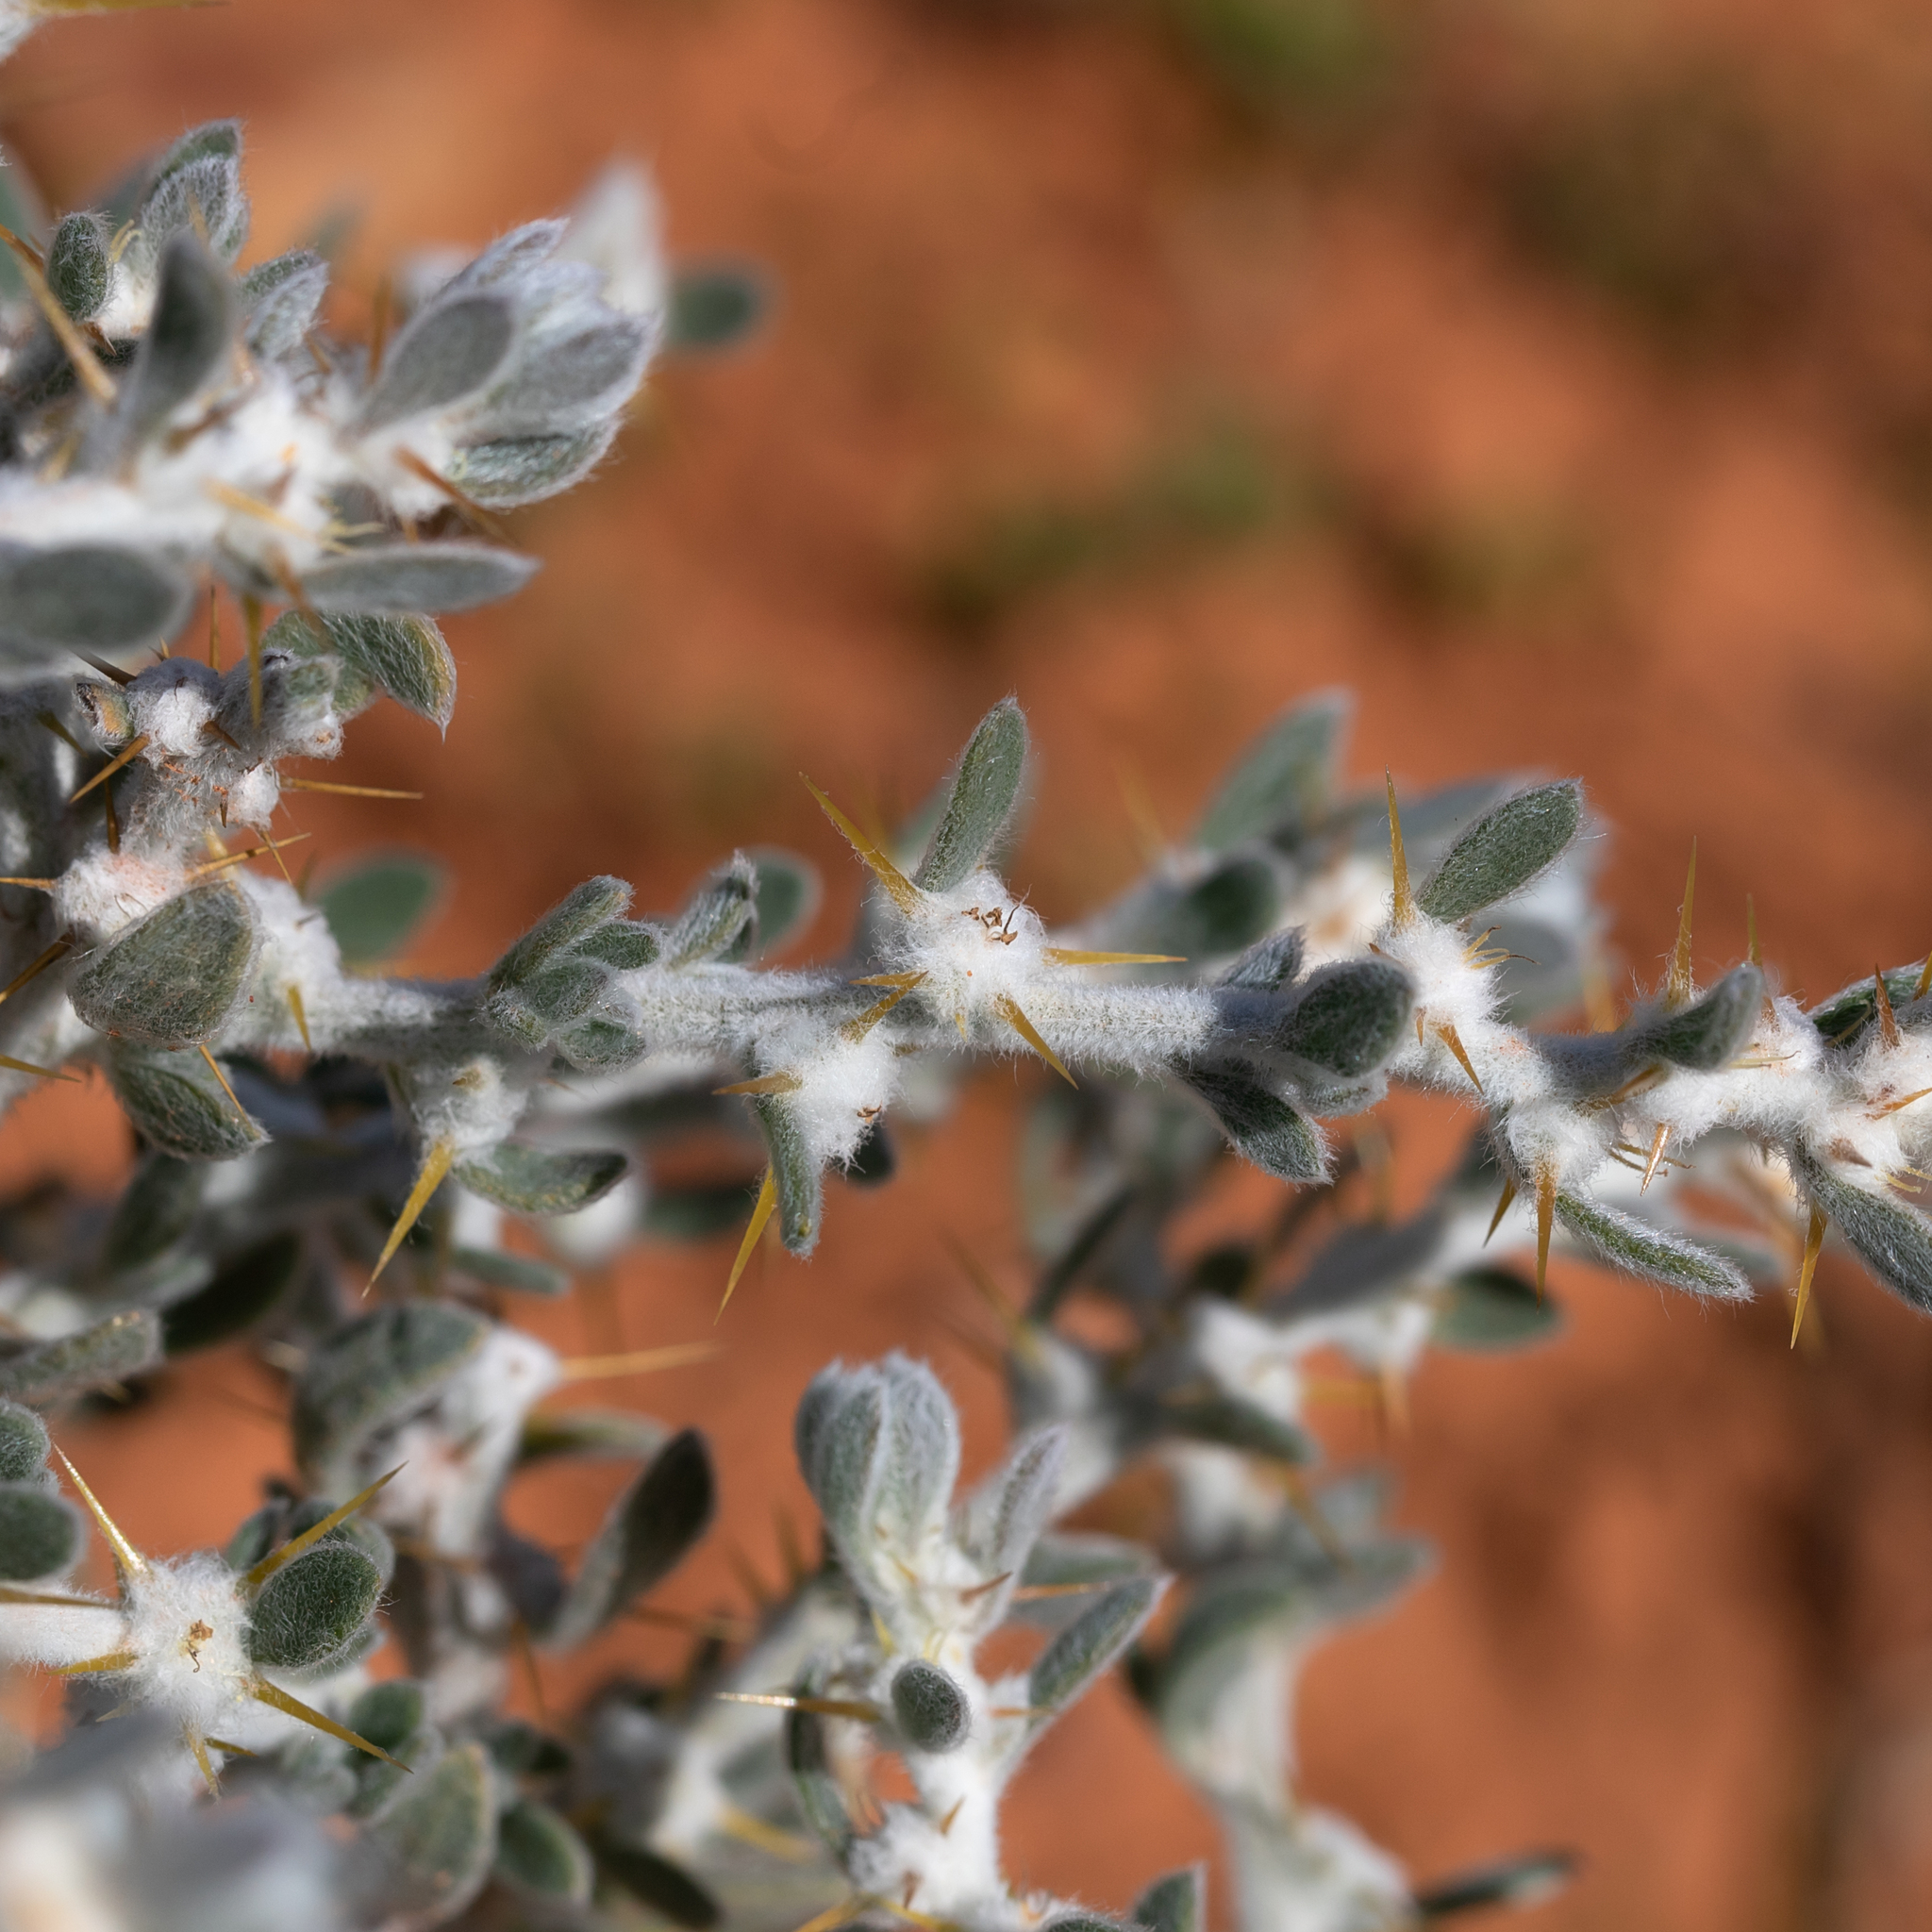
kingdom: Plantae
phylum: Tracheophyta
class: Magnoliopsida
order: Caryophyllales
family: Amaranthaceae
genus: Sclerolaena
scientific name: Sclerolaena birchii
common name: Galvanized bur
